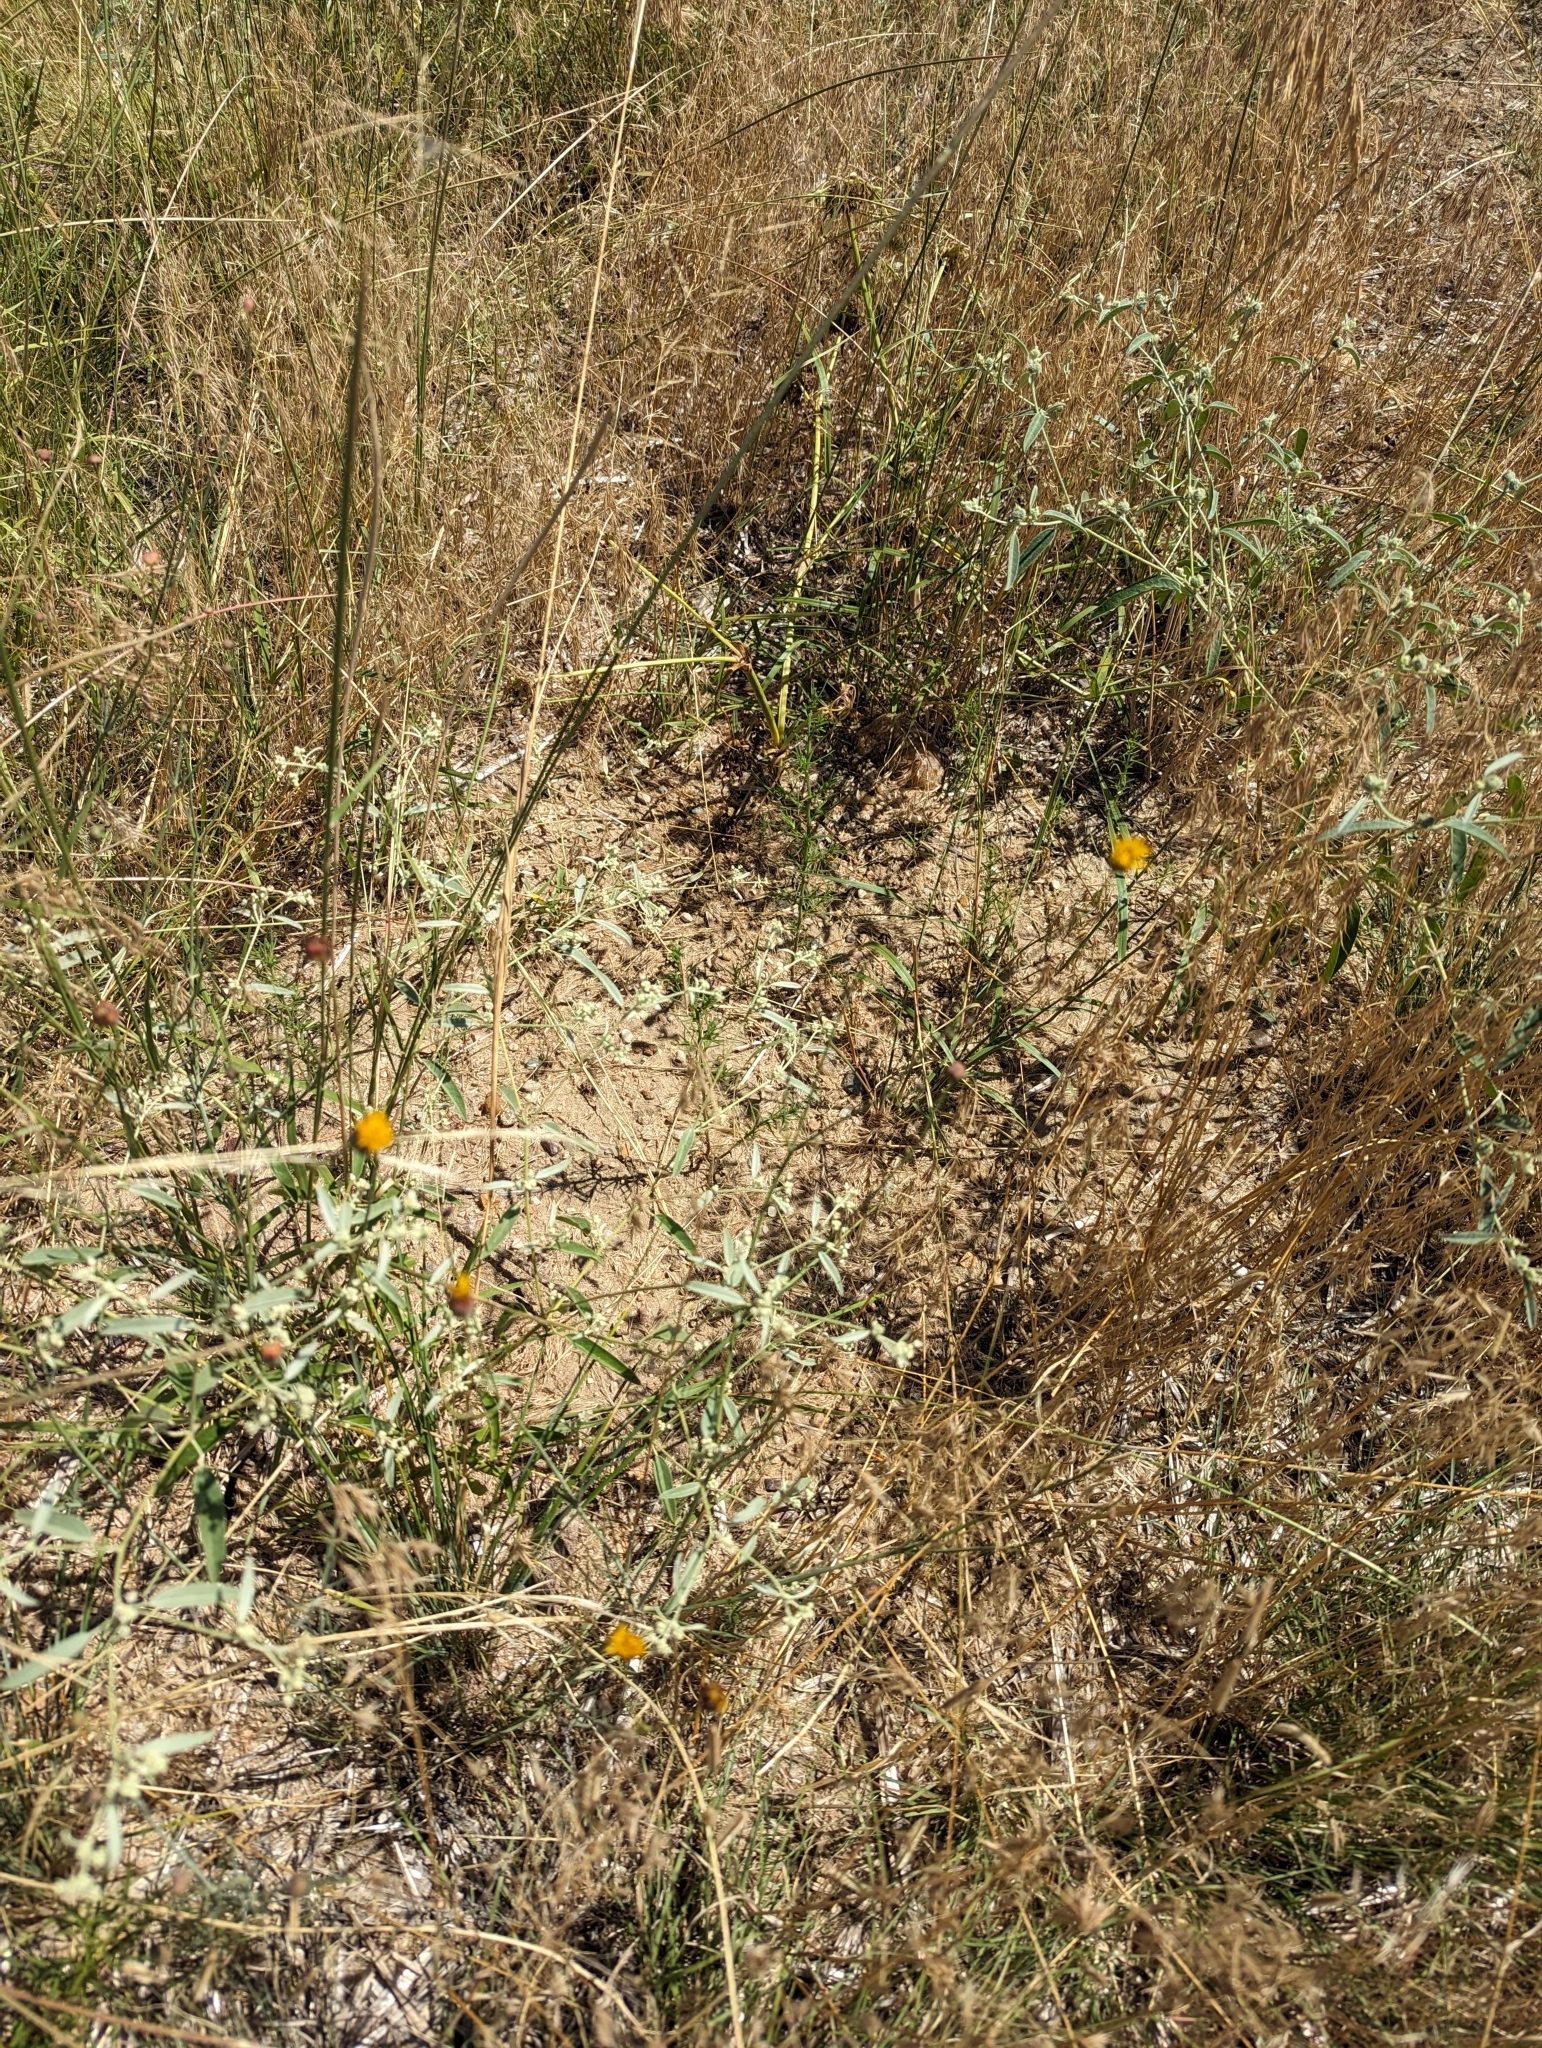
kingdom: Plantae
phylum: Tracheophyta
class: Magnoliopsida
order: Asterales
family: Asteraceae
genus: Thelesperma
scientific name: Thelesperma megapotamicum
